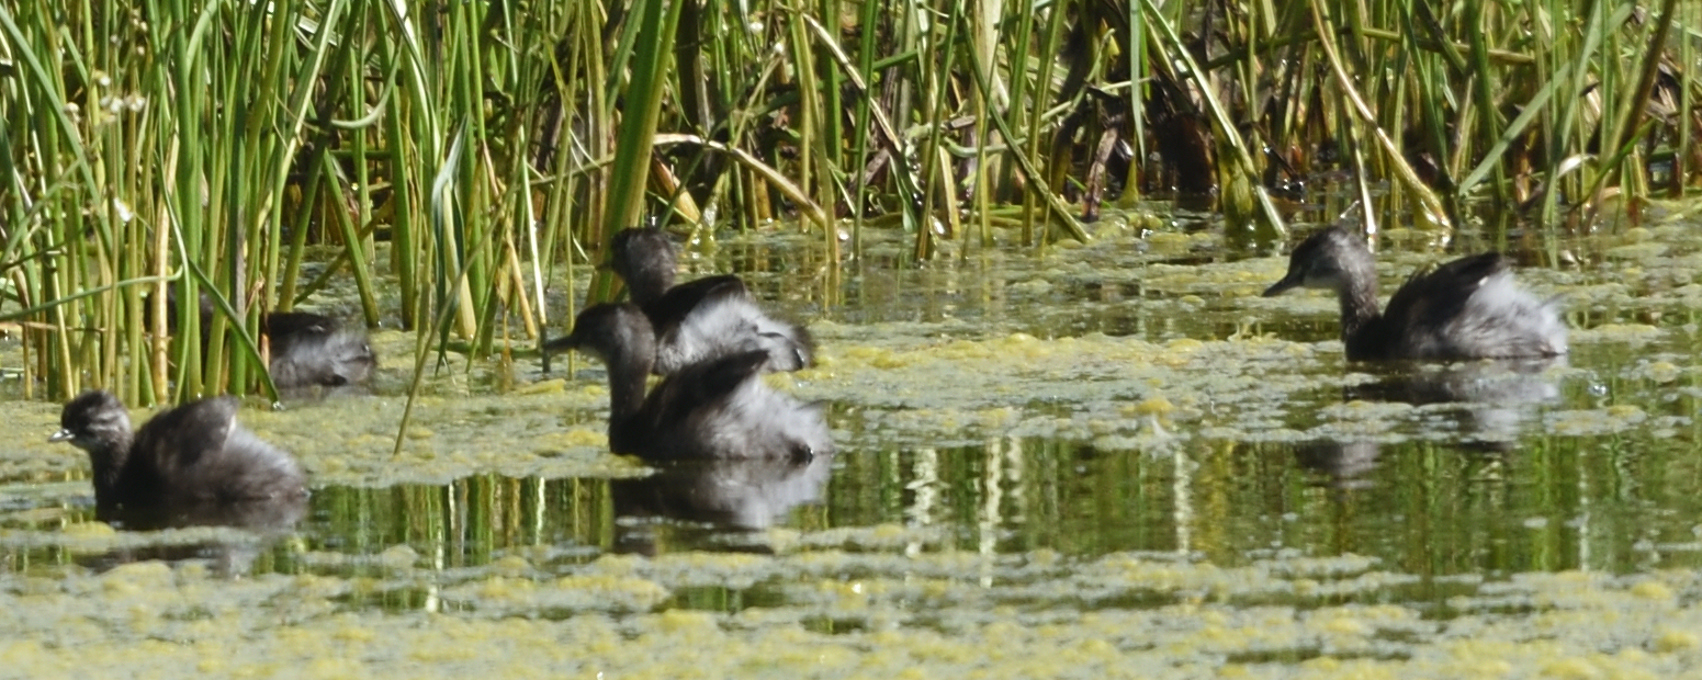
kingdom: Animalia
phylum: Chordata
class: Aves
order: Podicipediformes
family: Podicipedidae
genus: Tachybaptus
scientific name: Tachybaptus dominicus
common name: Least grebe
